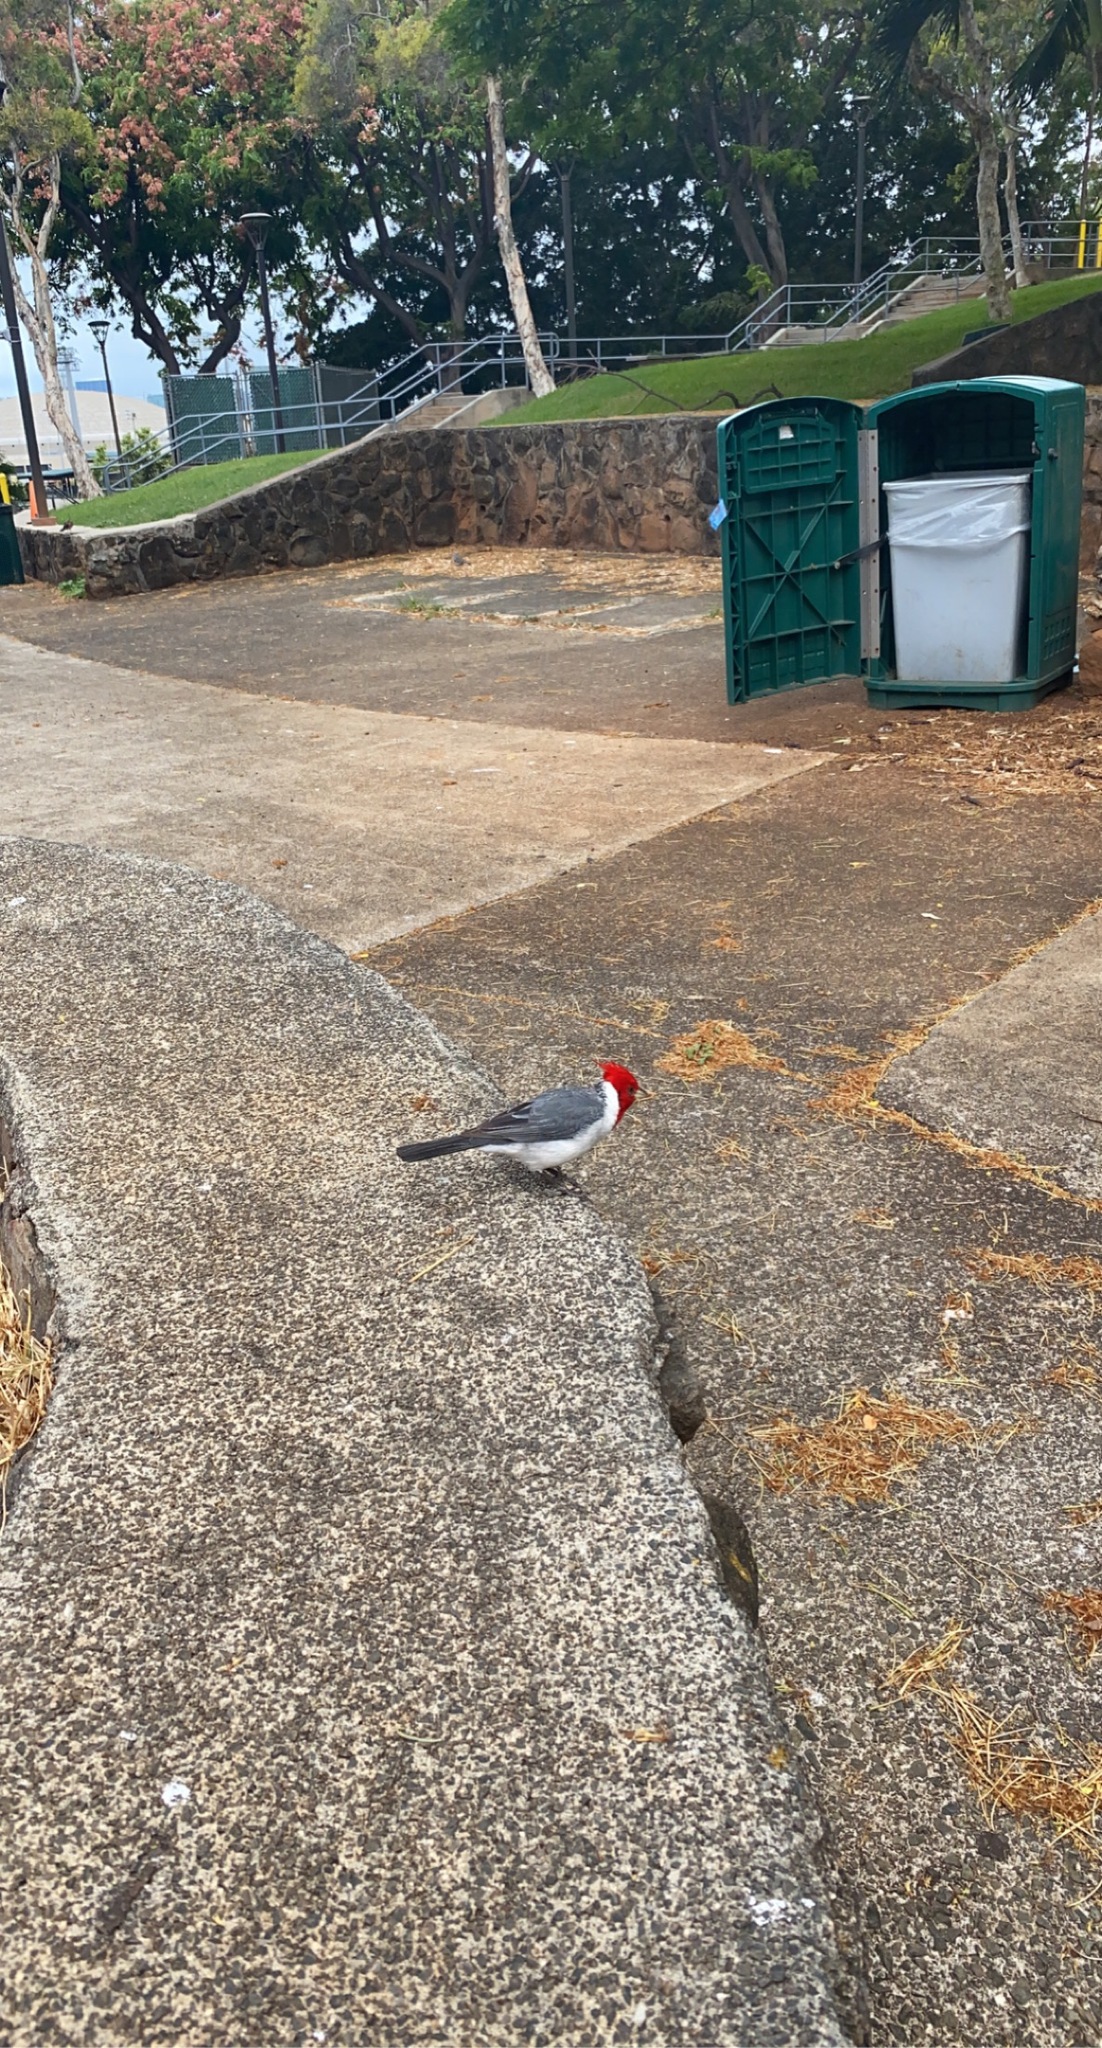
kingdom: Animalia
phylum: Chordata
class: Aves
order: Passeriformes
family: Thraupidae
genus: Paroaria
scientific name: Paroaria coronata
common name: Red-crested cardinal
